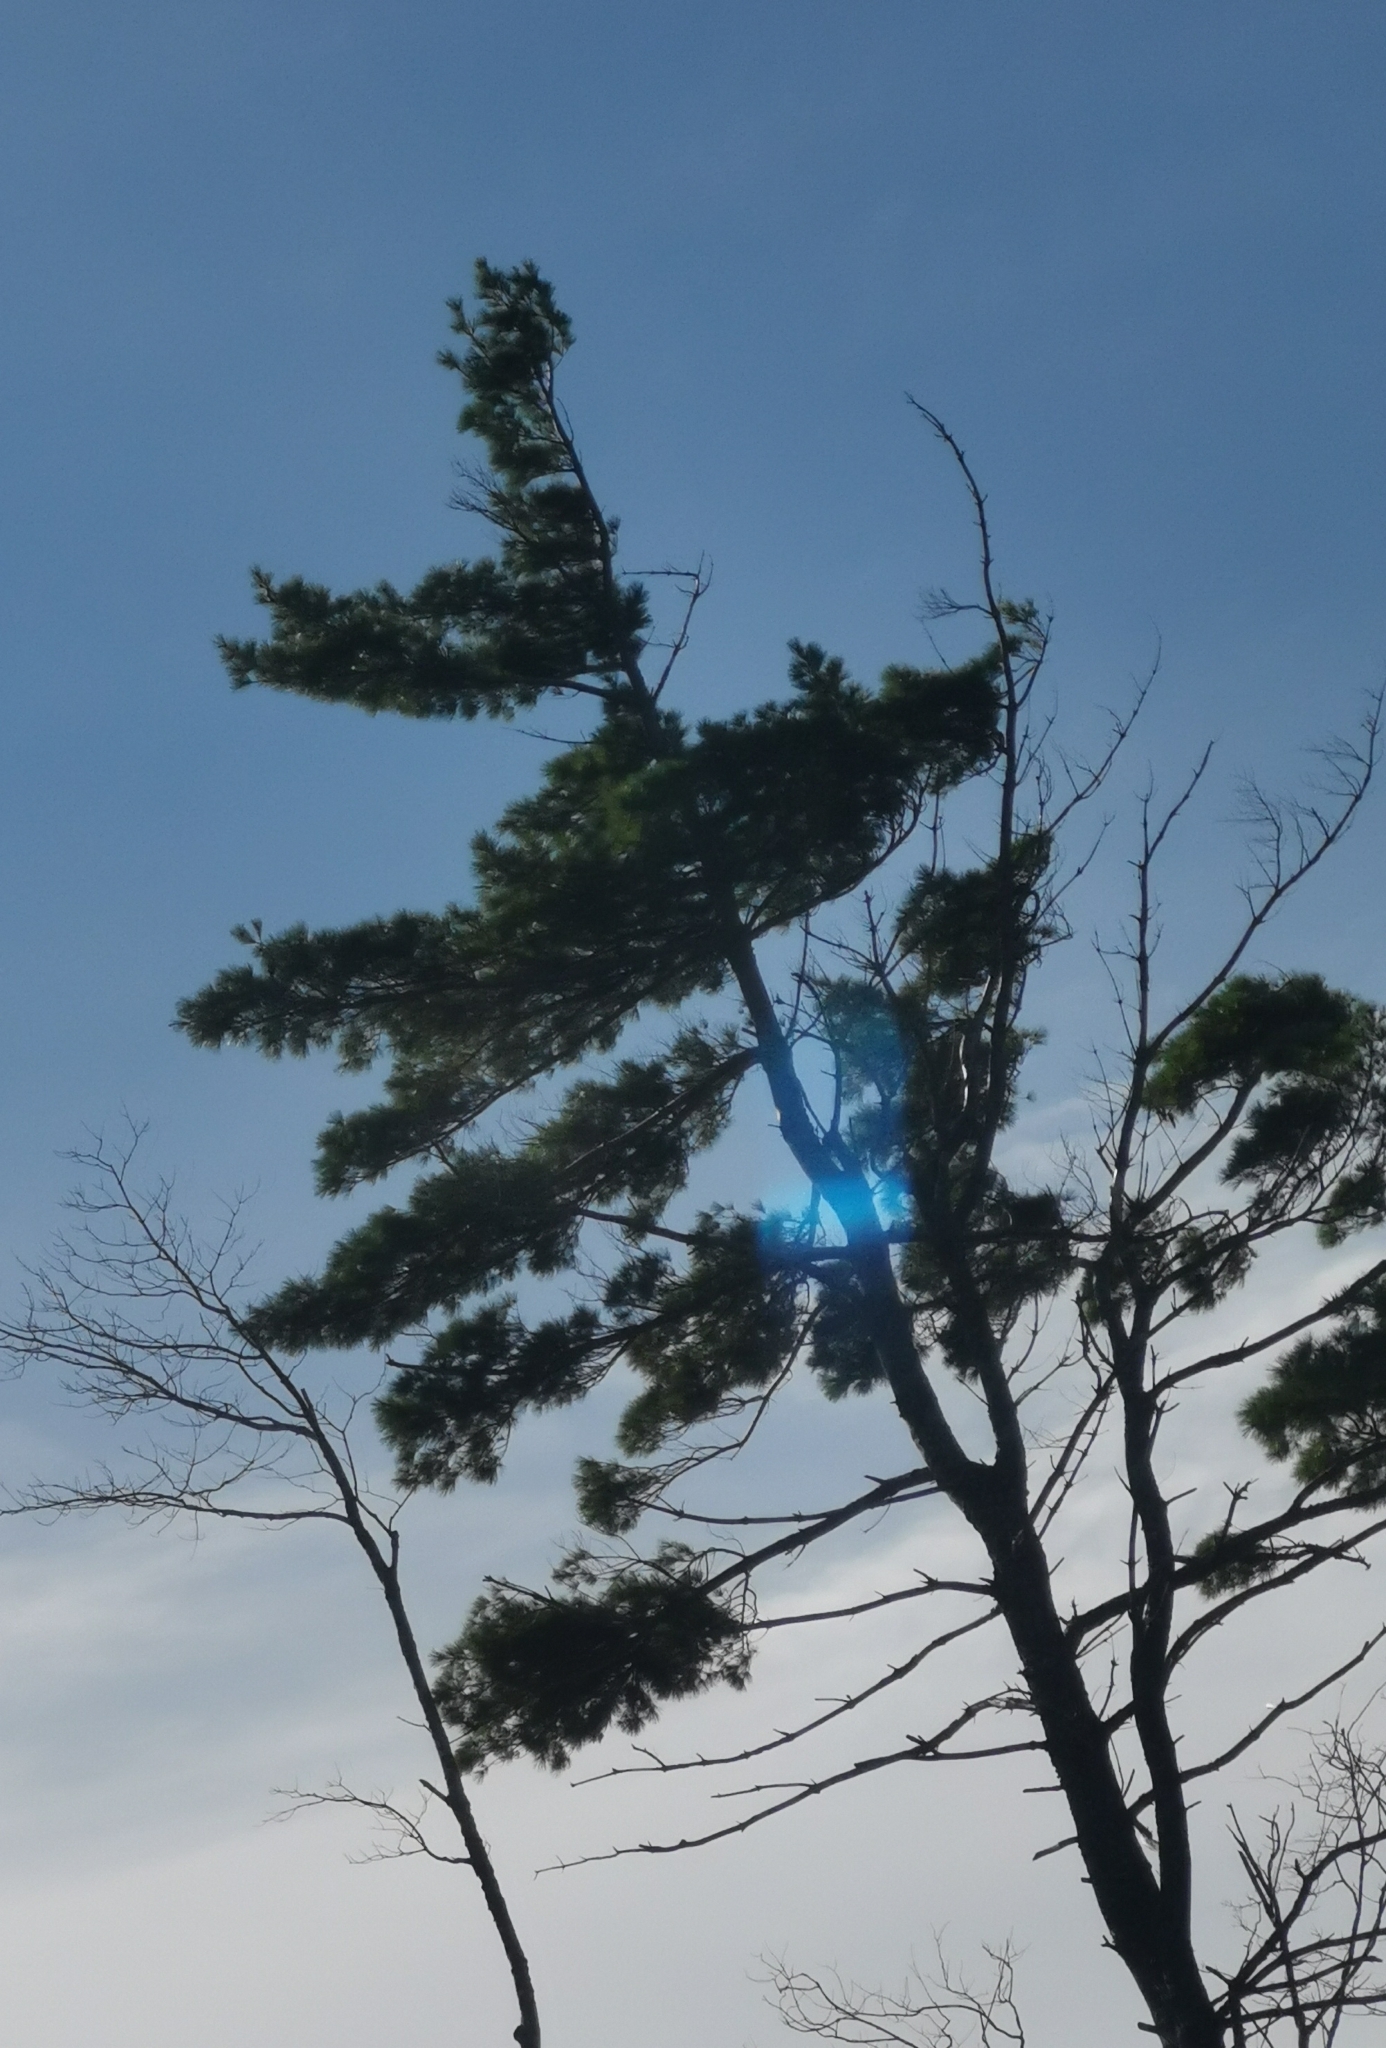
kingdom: Plantae
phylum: Tracheophyta
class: Pinopsida
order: Pinales
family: Pinaceae
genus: Pinus
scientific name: Pinus strobus
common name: Weymouth pine
